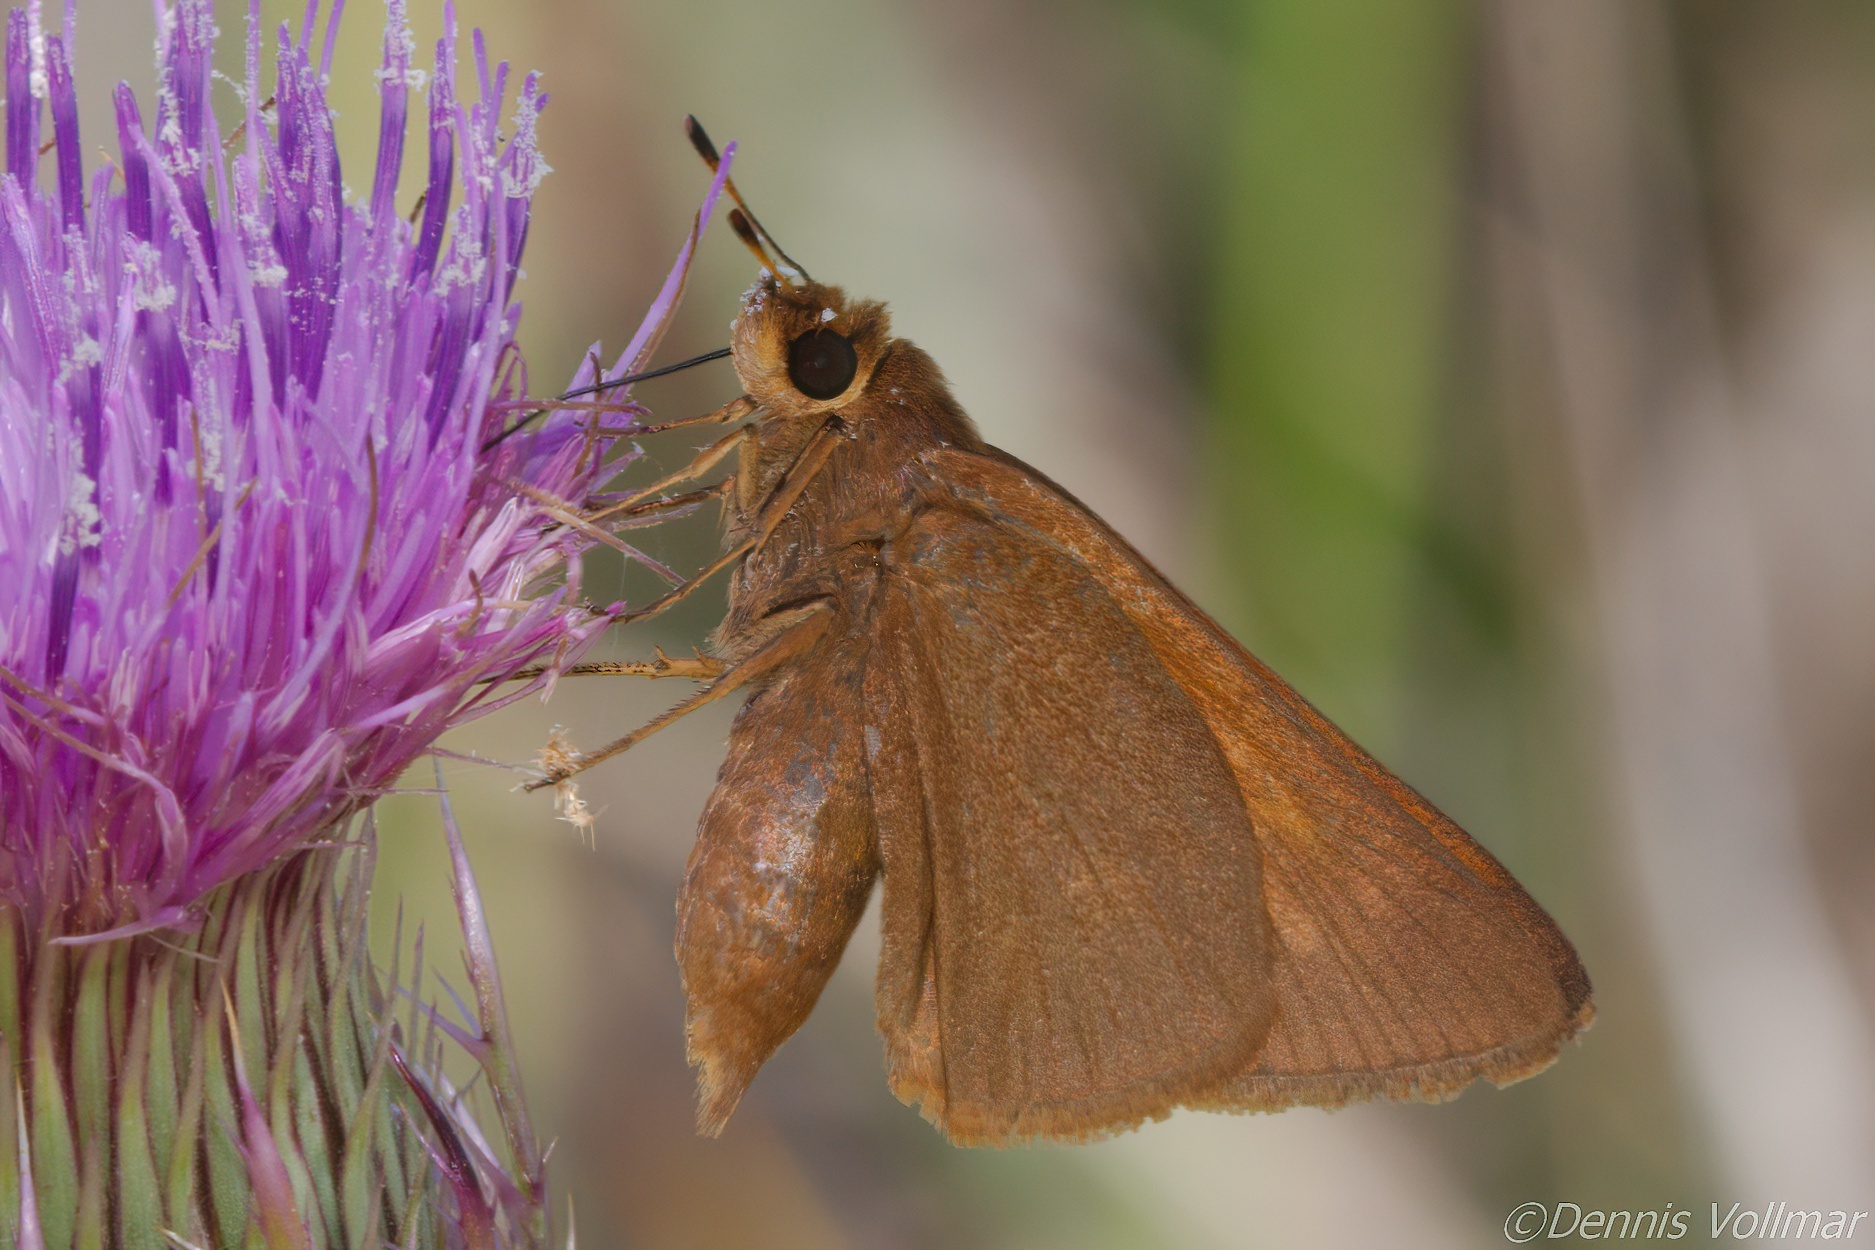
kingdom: Animalia
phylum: Arthropoda
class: Insecta
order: Lepidoptera
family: Hesperiidae
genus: Euphyes
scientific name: Euphyes pilatka
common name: Palatka skipper
